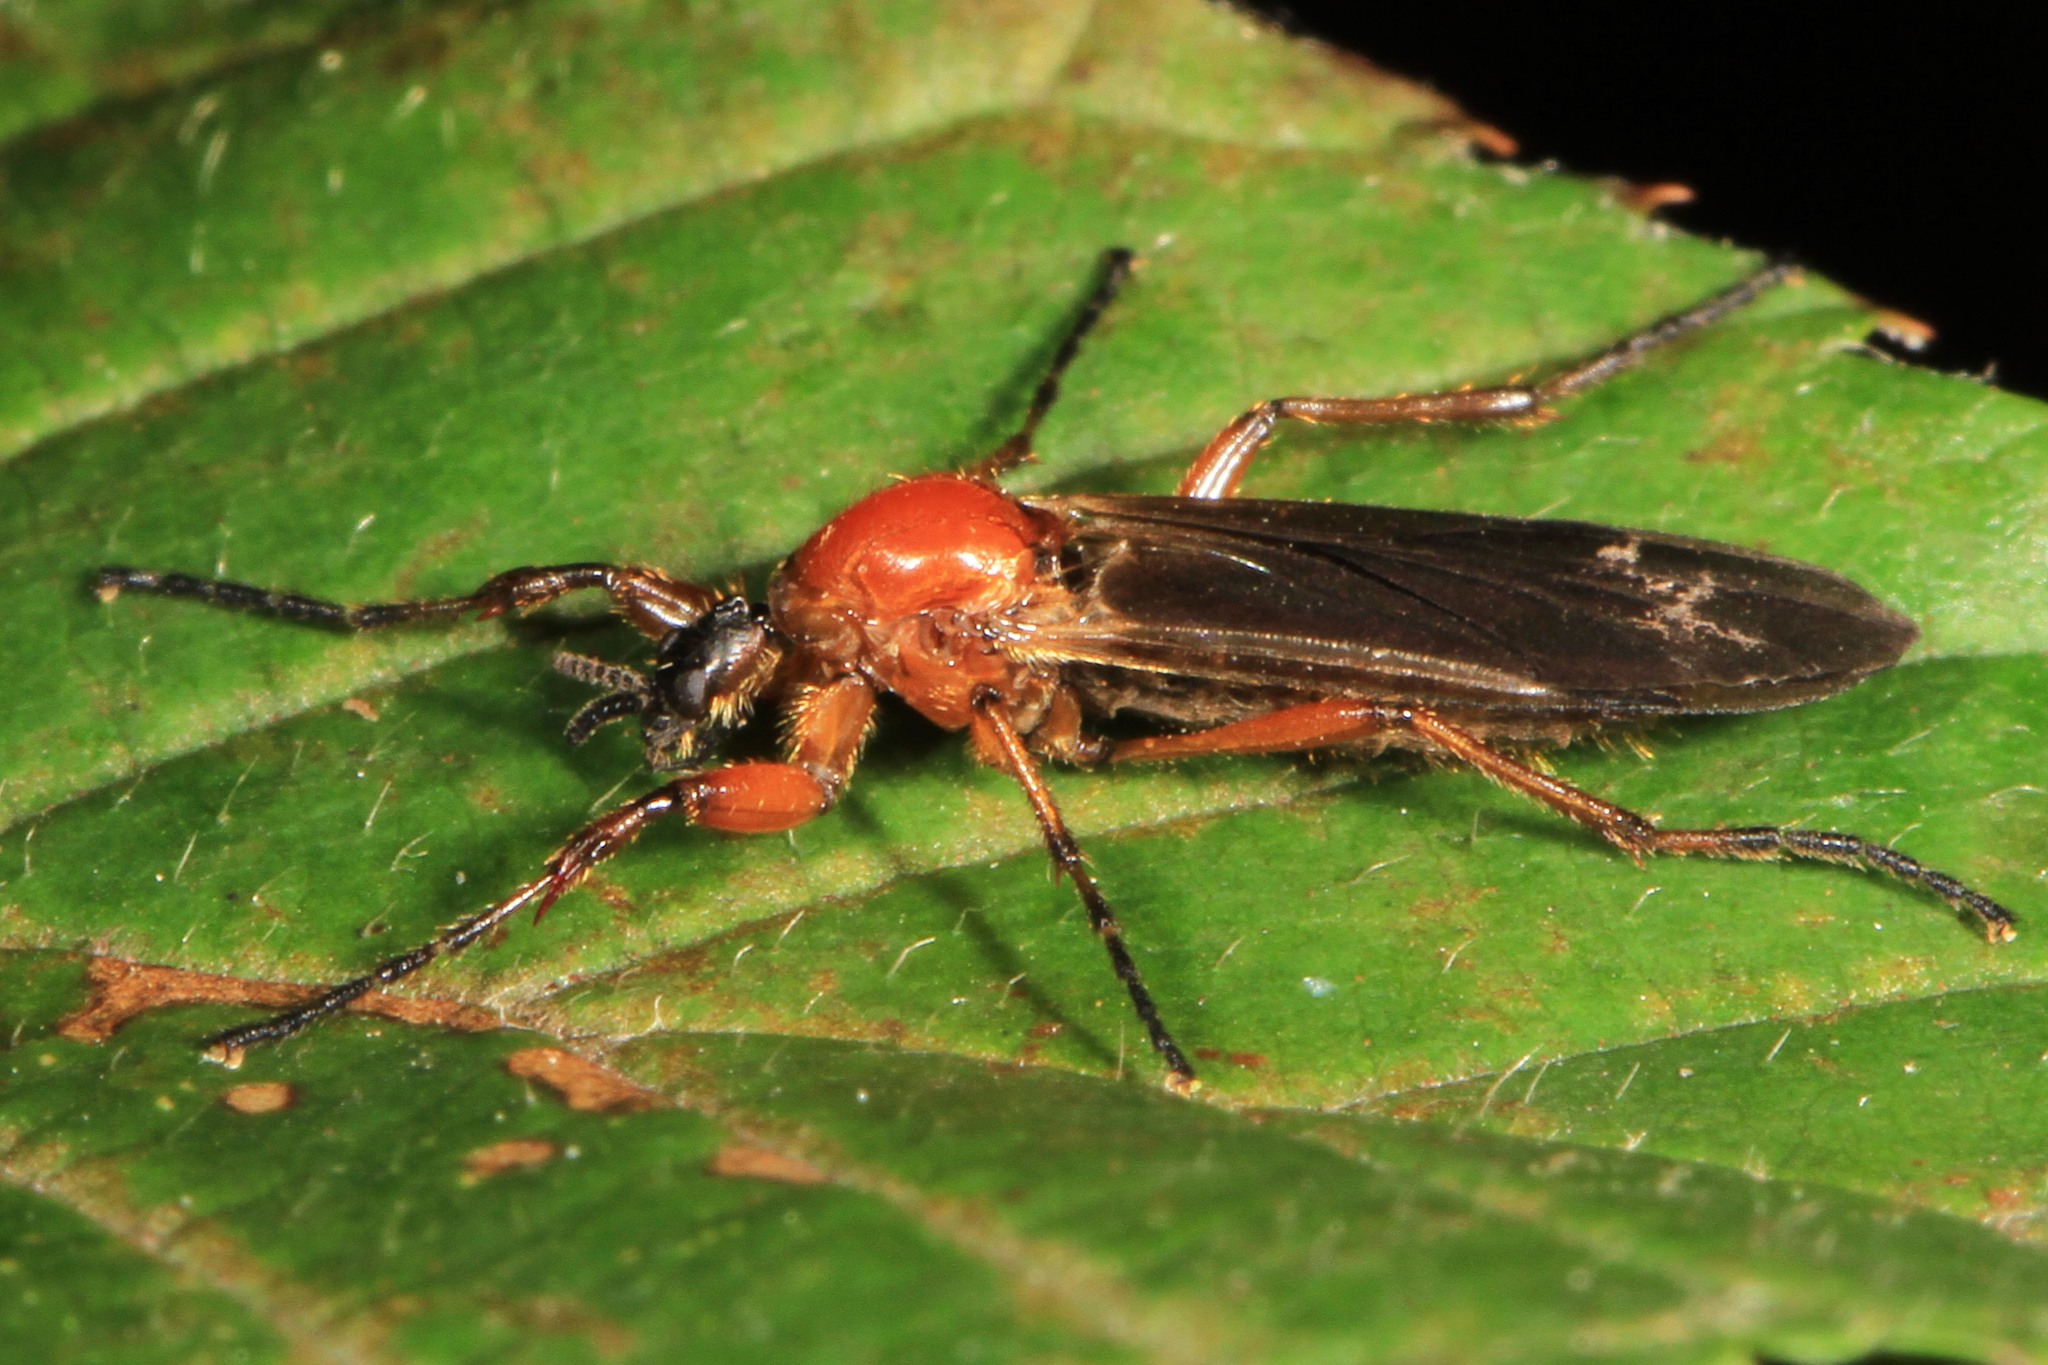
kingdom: Animalia
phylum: Arthropoda
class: Insecta
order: Diptera
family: Bibionidae
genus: Bibio
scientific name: Bibio longipes
